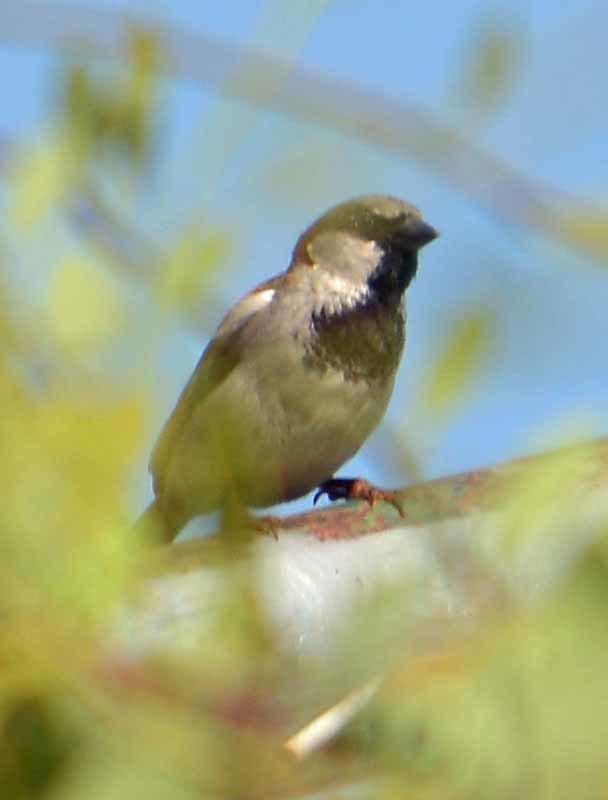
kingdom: Animalia
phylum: Chordata
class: Aves
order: Passeriformes
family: Passeridae
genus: Passer
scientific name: Passer domesticus
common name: House sparrow
